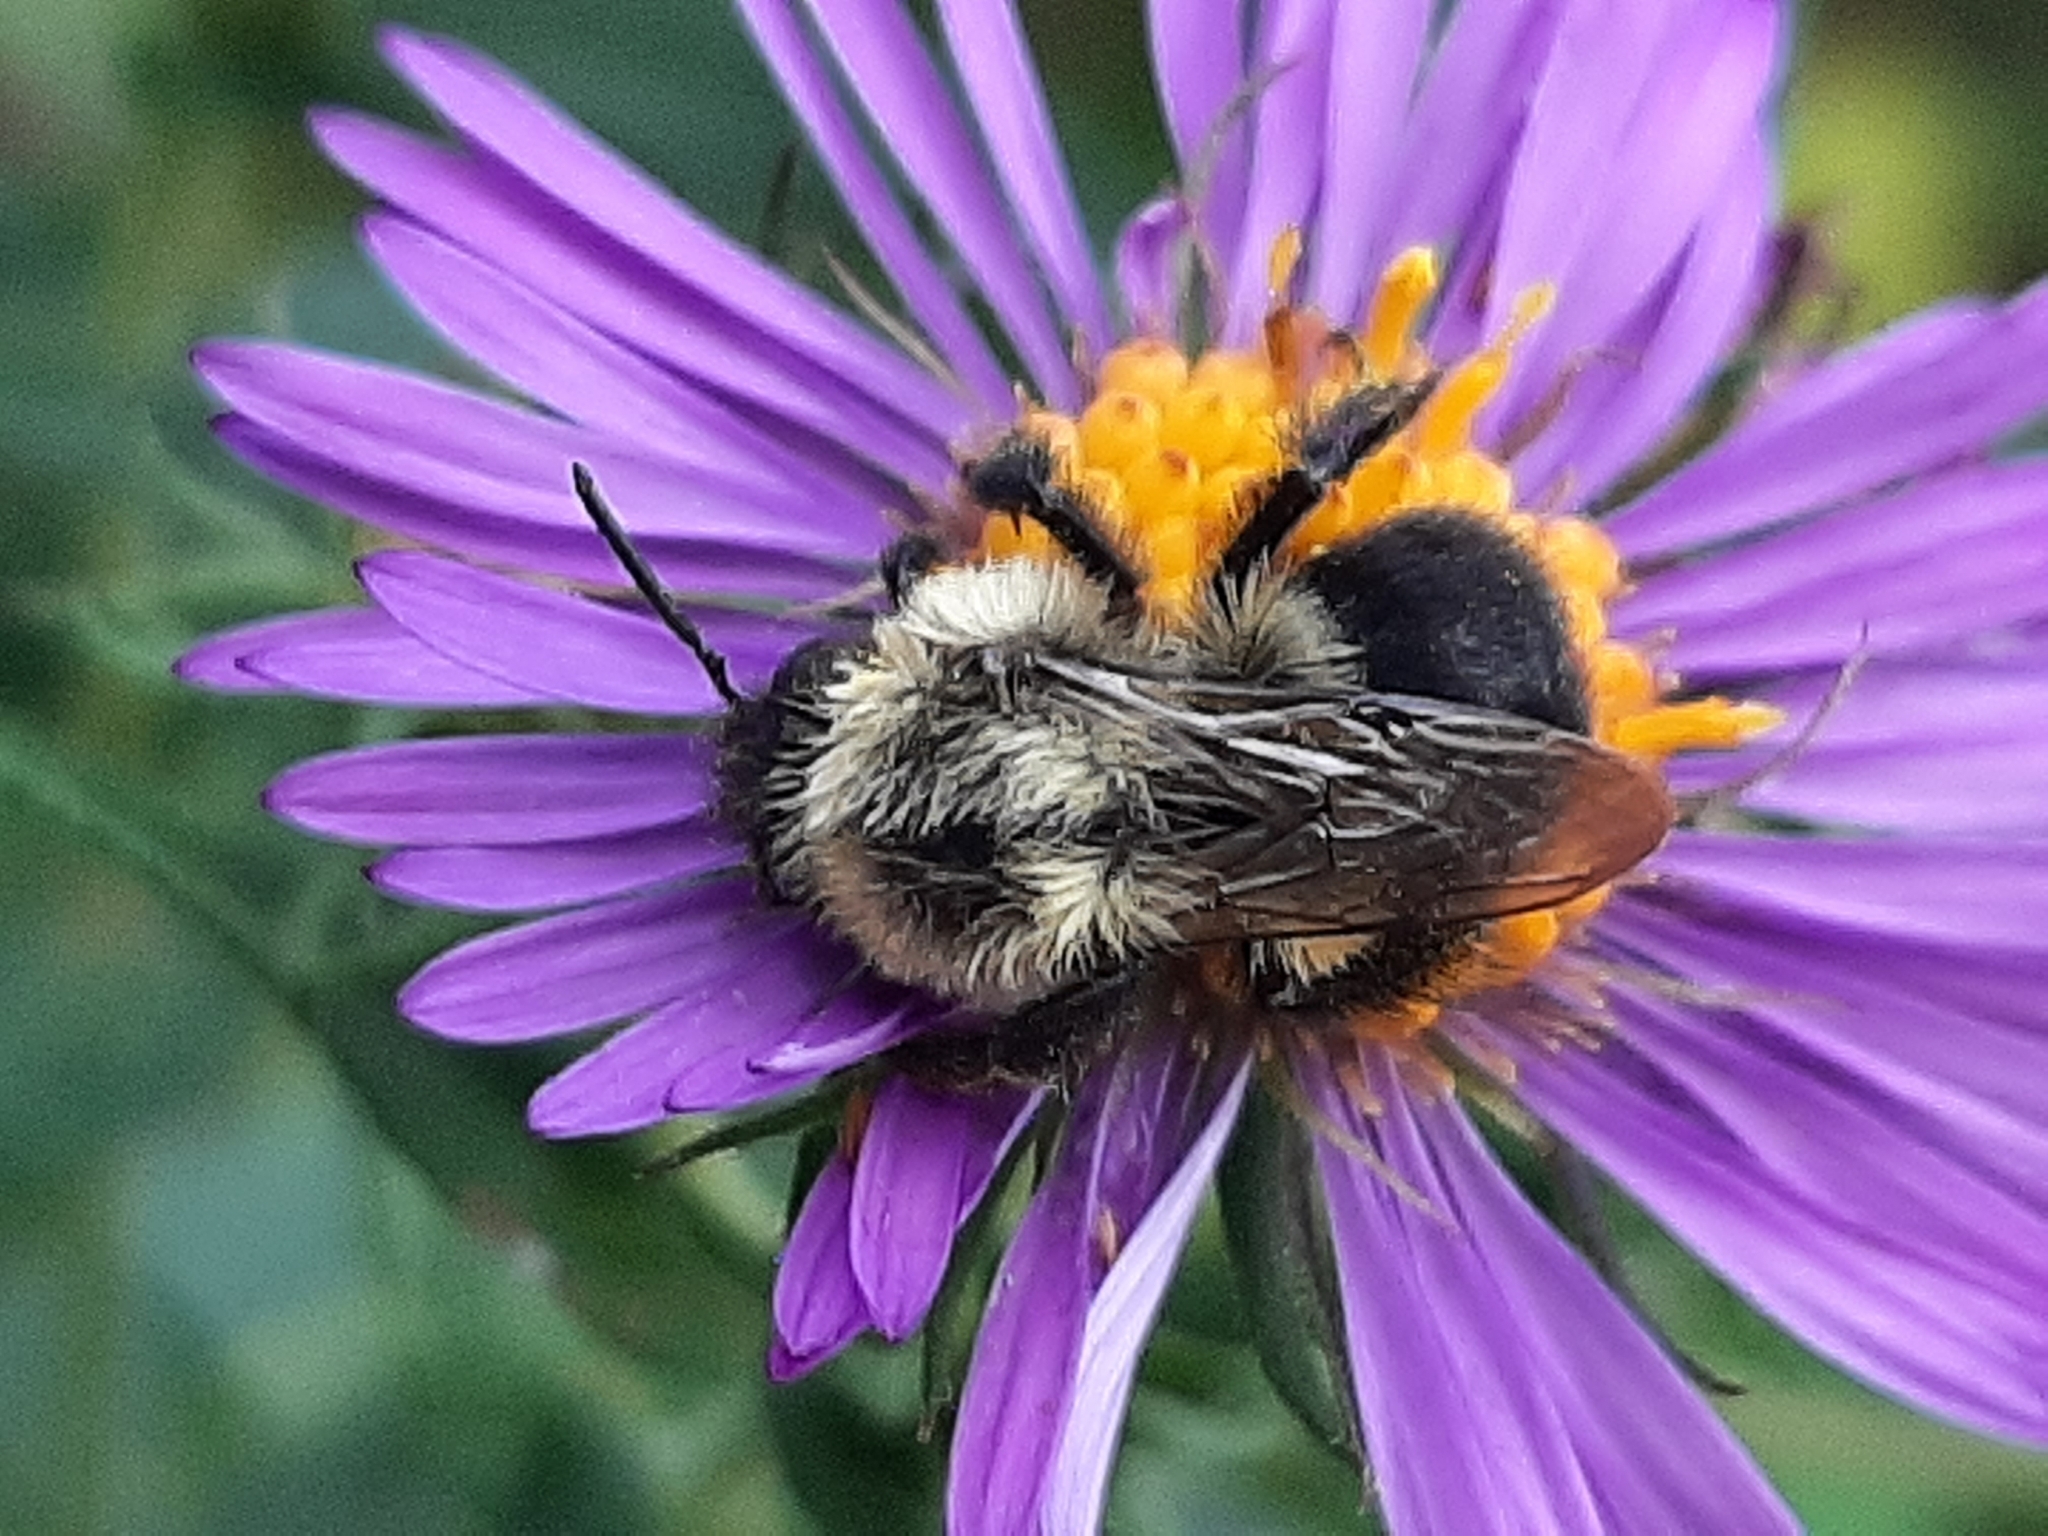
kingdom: Animalia
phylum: Arthropoda
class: Insecta
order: Hymenoptera
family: Apidae
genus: Bombus
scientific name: Bombus impatiens
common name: Common eastern bumble bee
